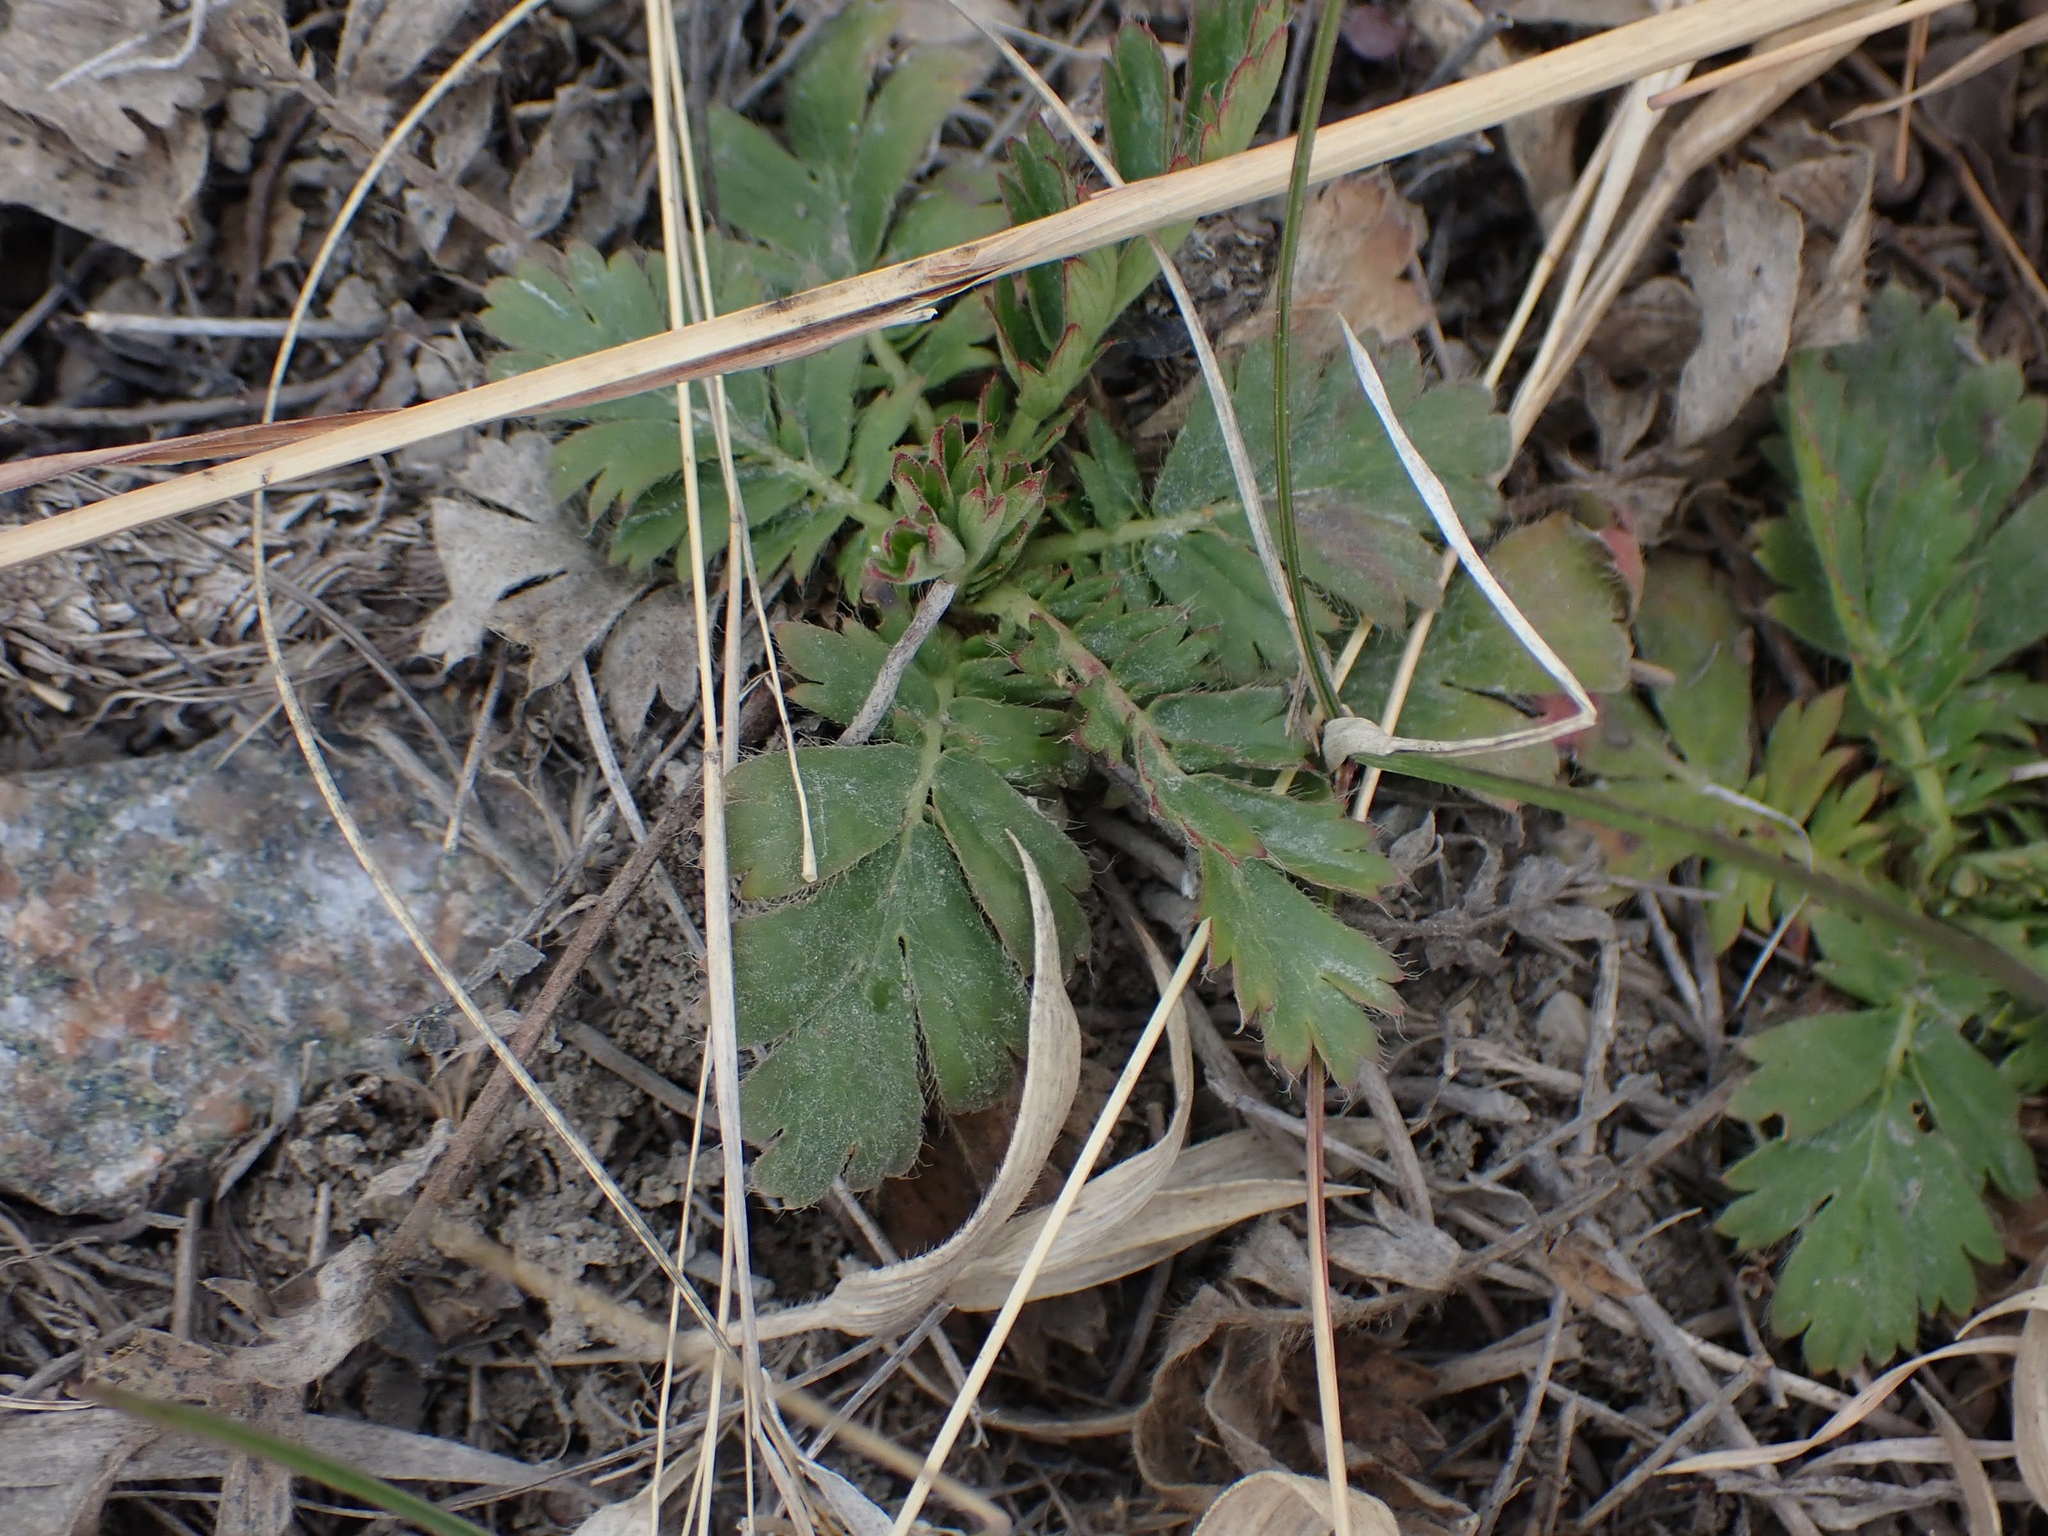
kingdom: Plantae
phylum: Tracheophyta
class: Magnoliopsida
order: Rosales
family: Rosaceae
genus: Geum
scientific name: Geum triflorum
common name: Old man's whiskers
